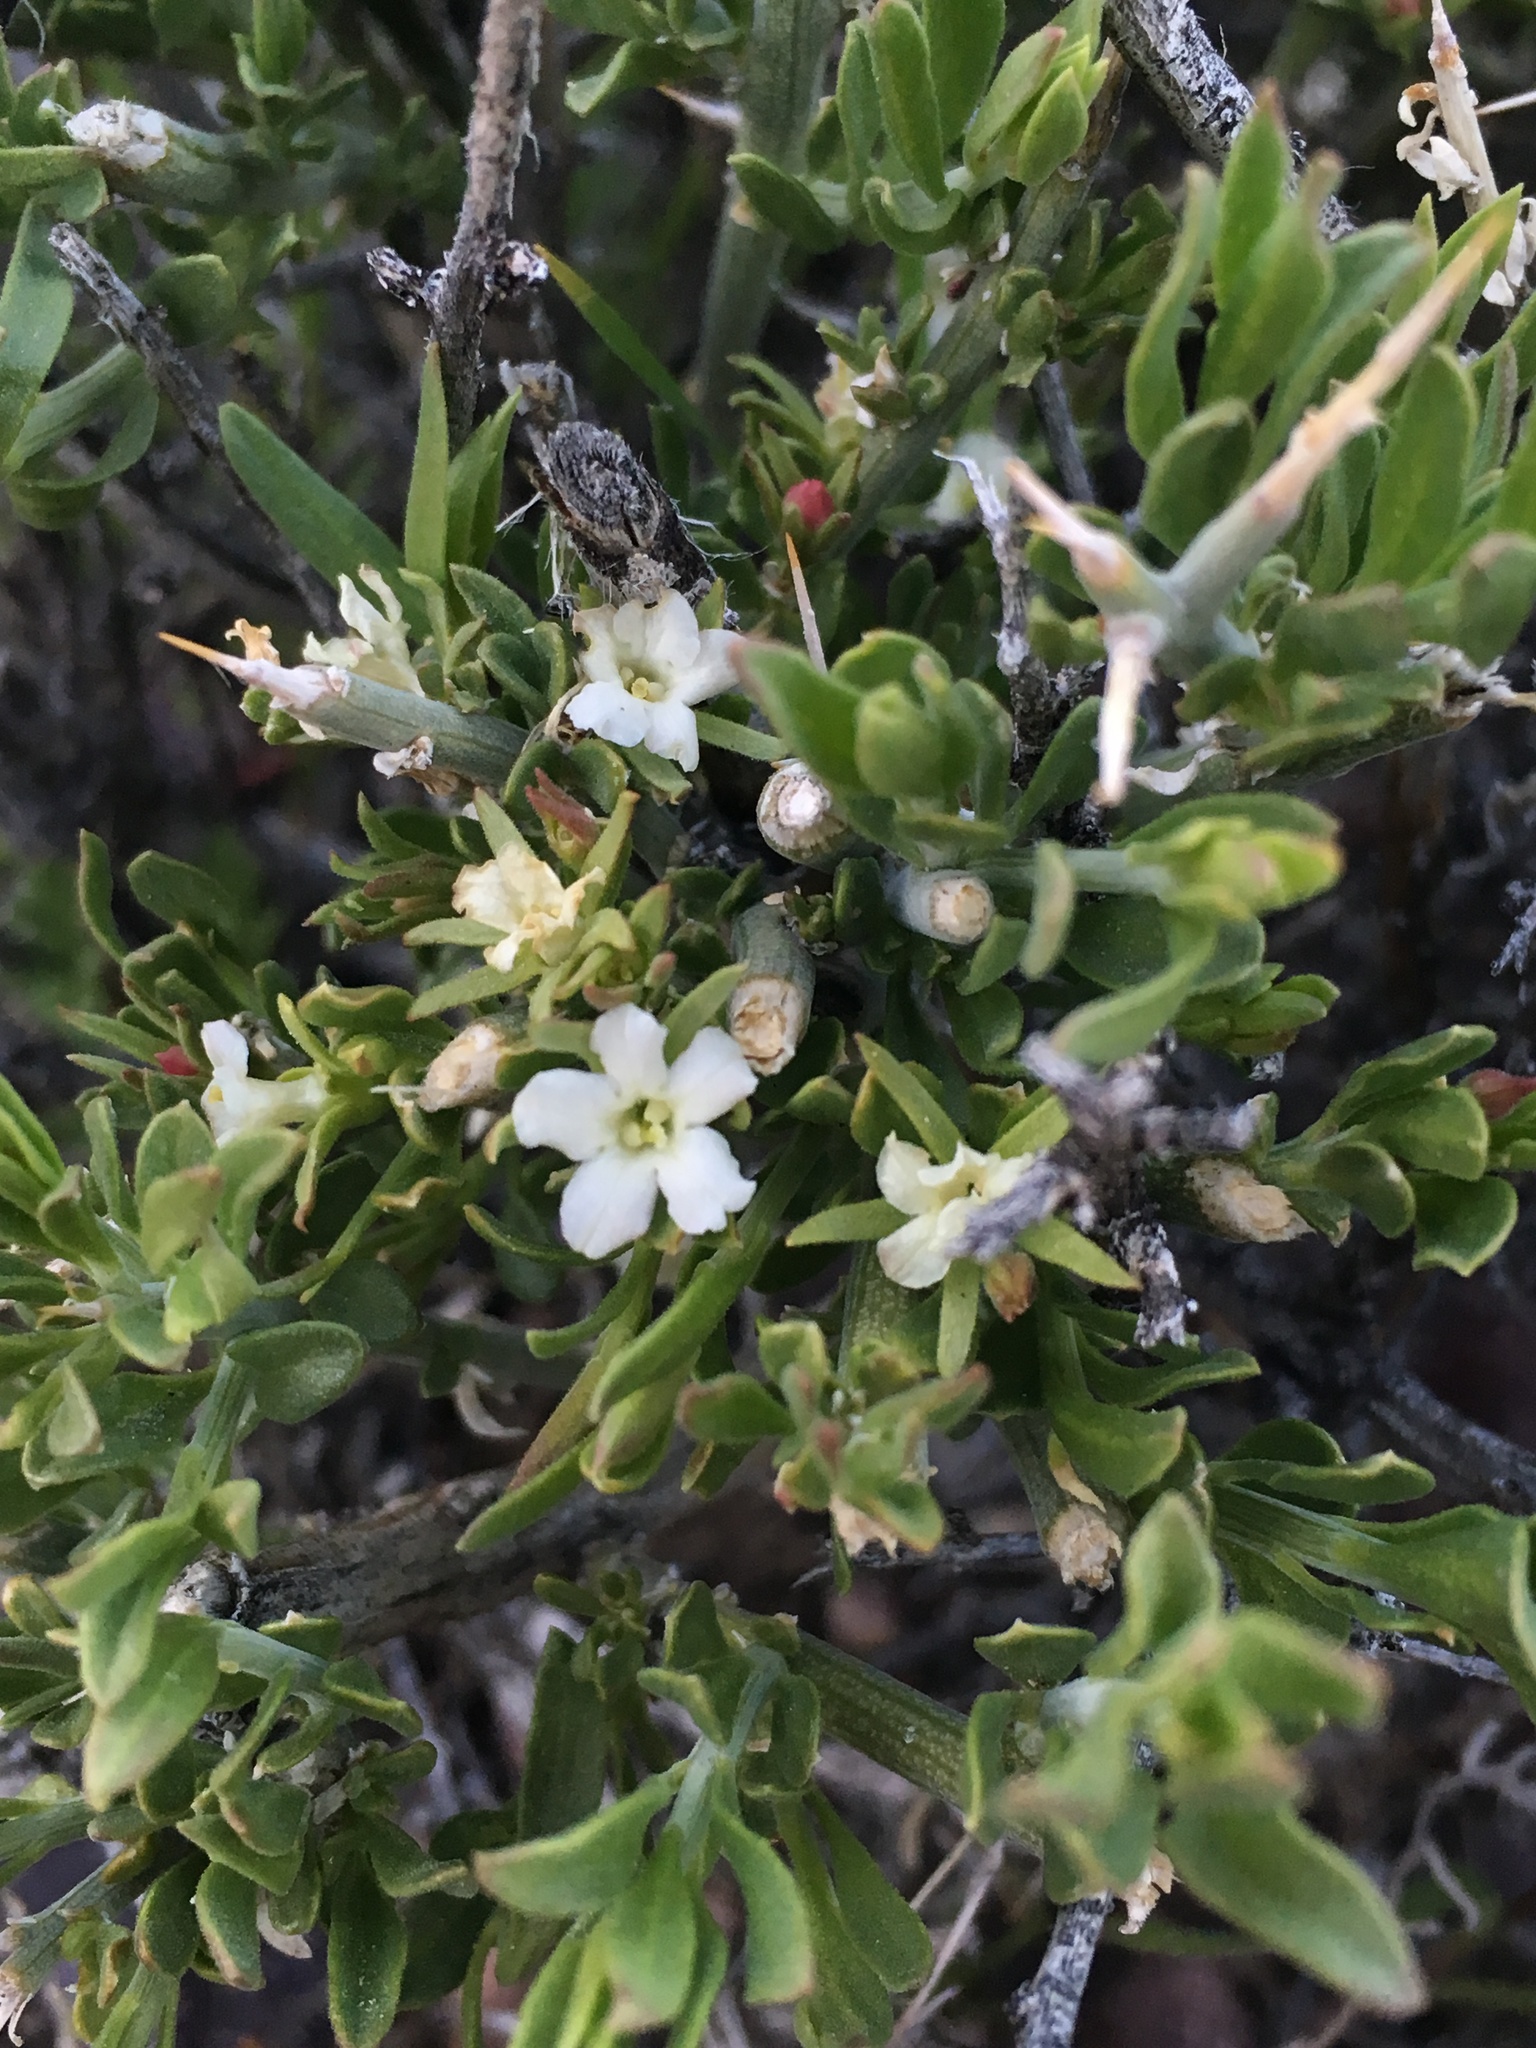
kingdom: Plantae
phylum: Tracheophyta
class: Magnoliopsida
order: Lamiales
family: Oleaceae
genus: Menodora
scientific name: Menodora spinescens
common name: Spiny menodora
